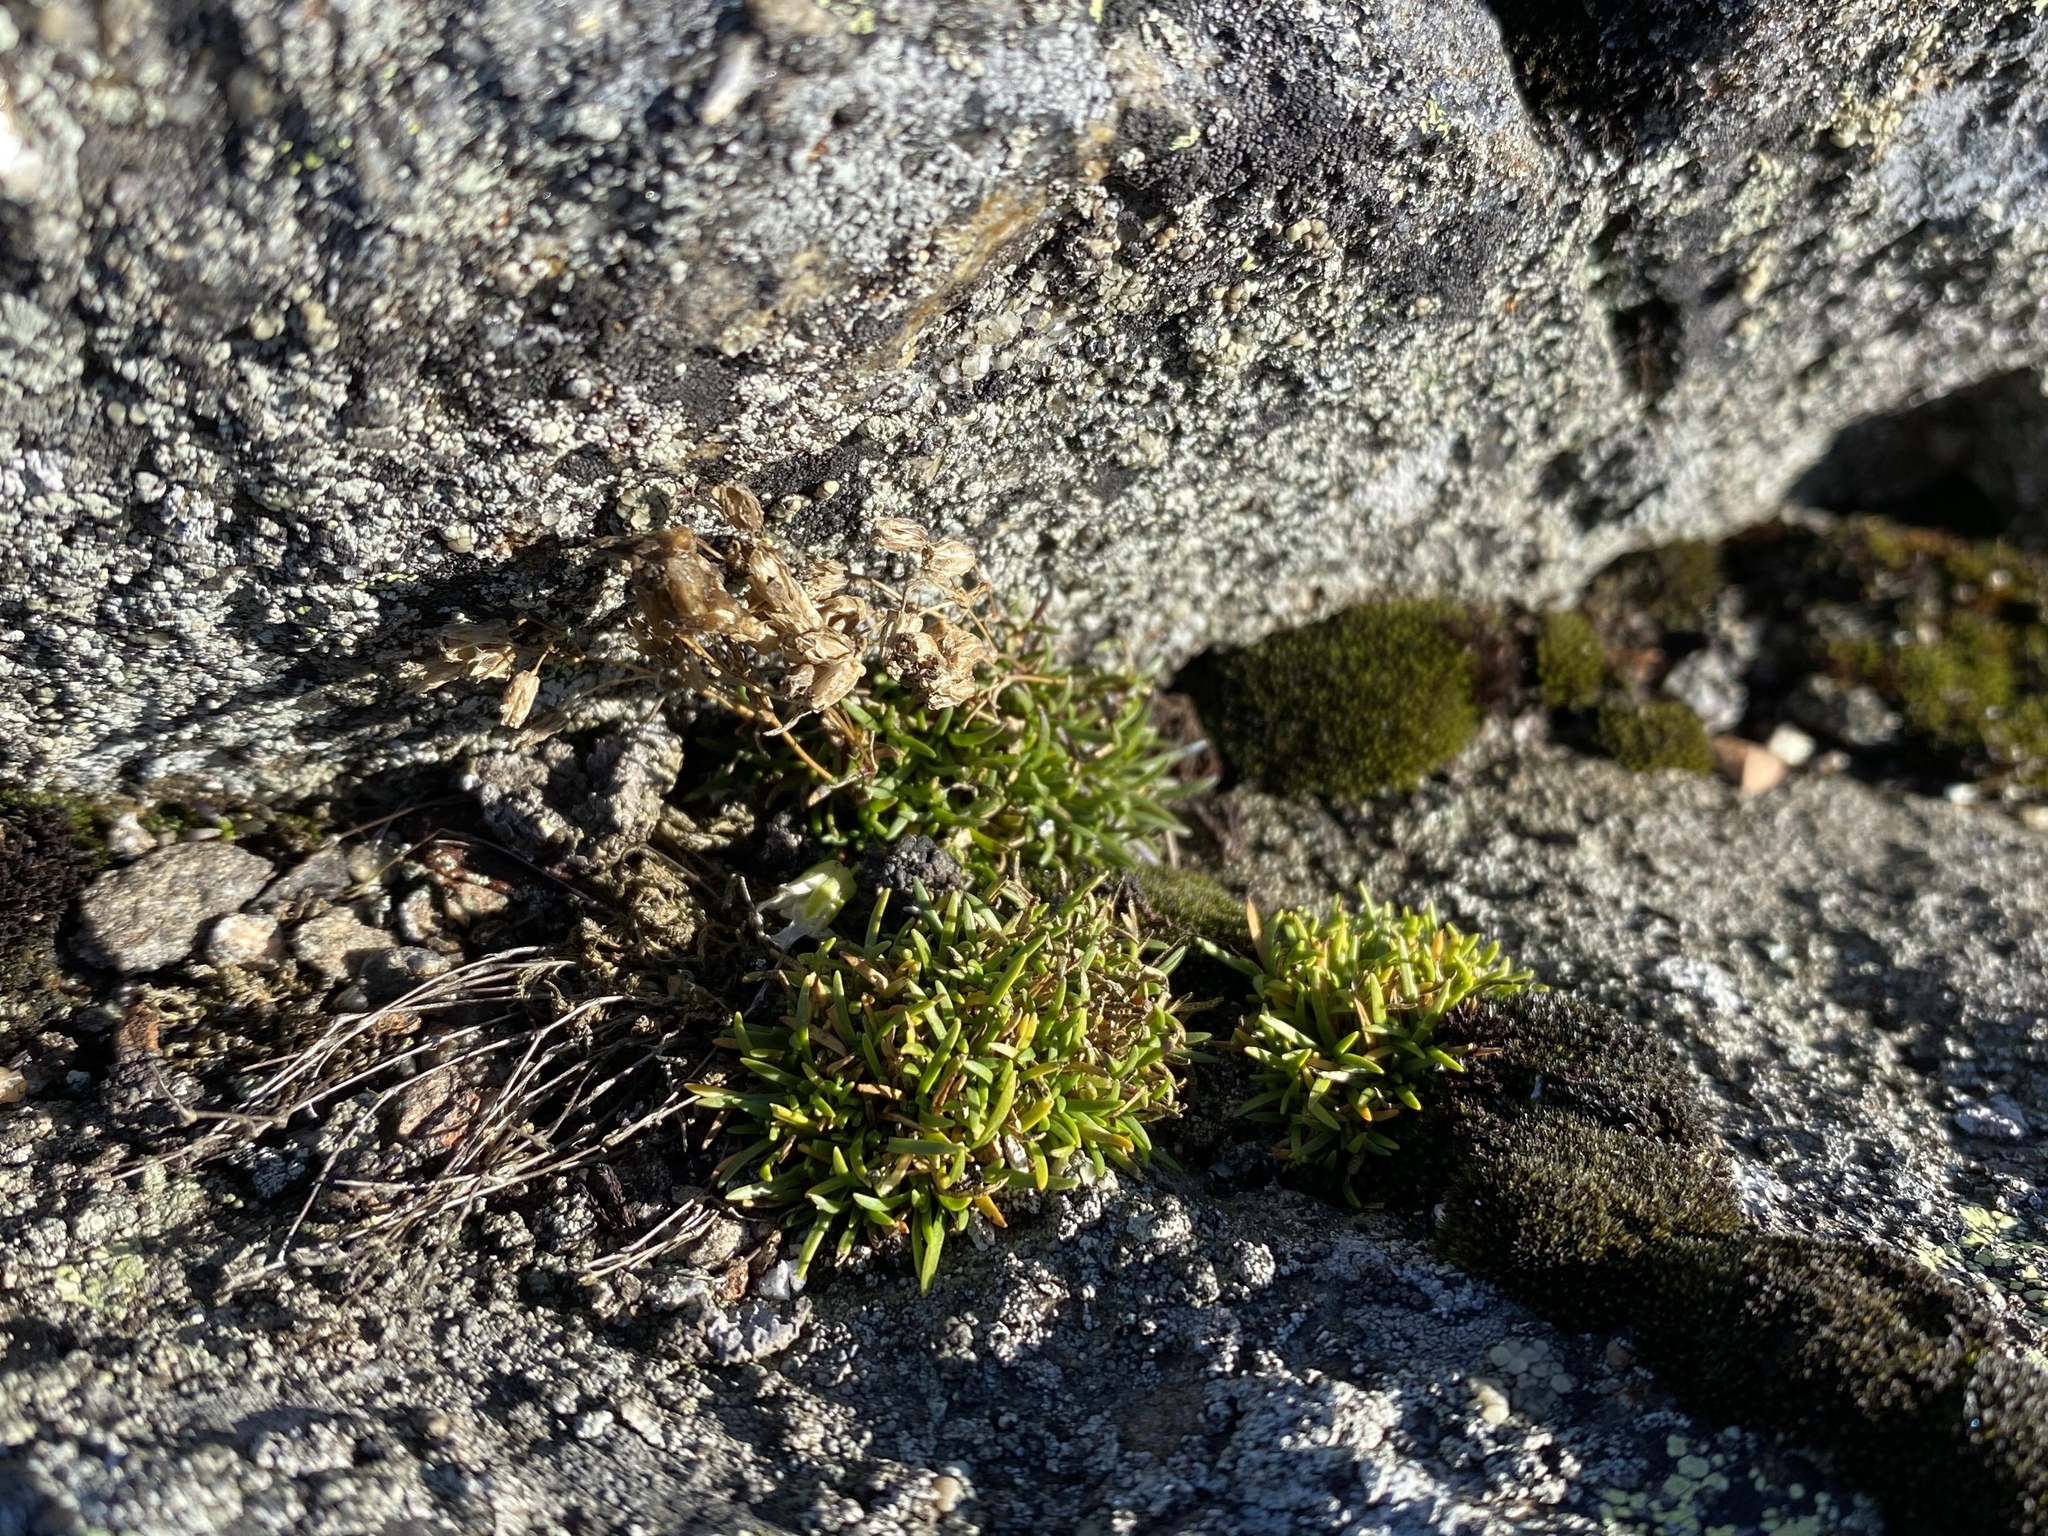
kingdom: Plantae
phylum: Tracheophyta
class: Magnoliopsida
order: Caryophyllales
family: Caryophyllaceae
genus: Geocarpon
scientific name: Geocarpon groenlandicum
